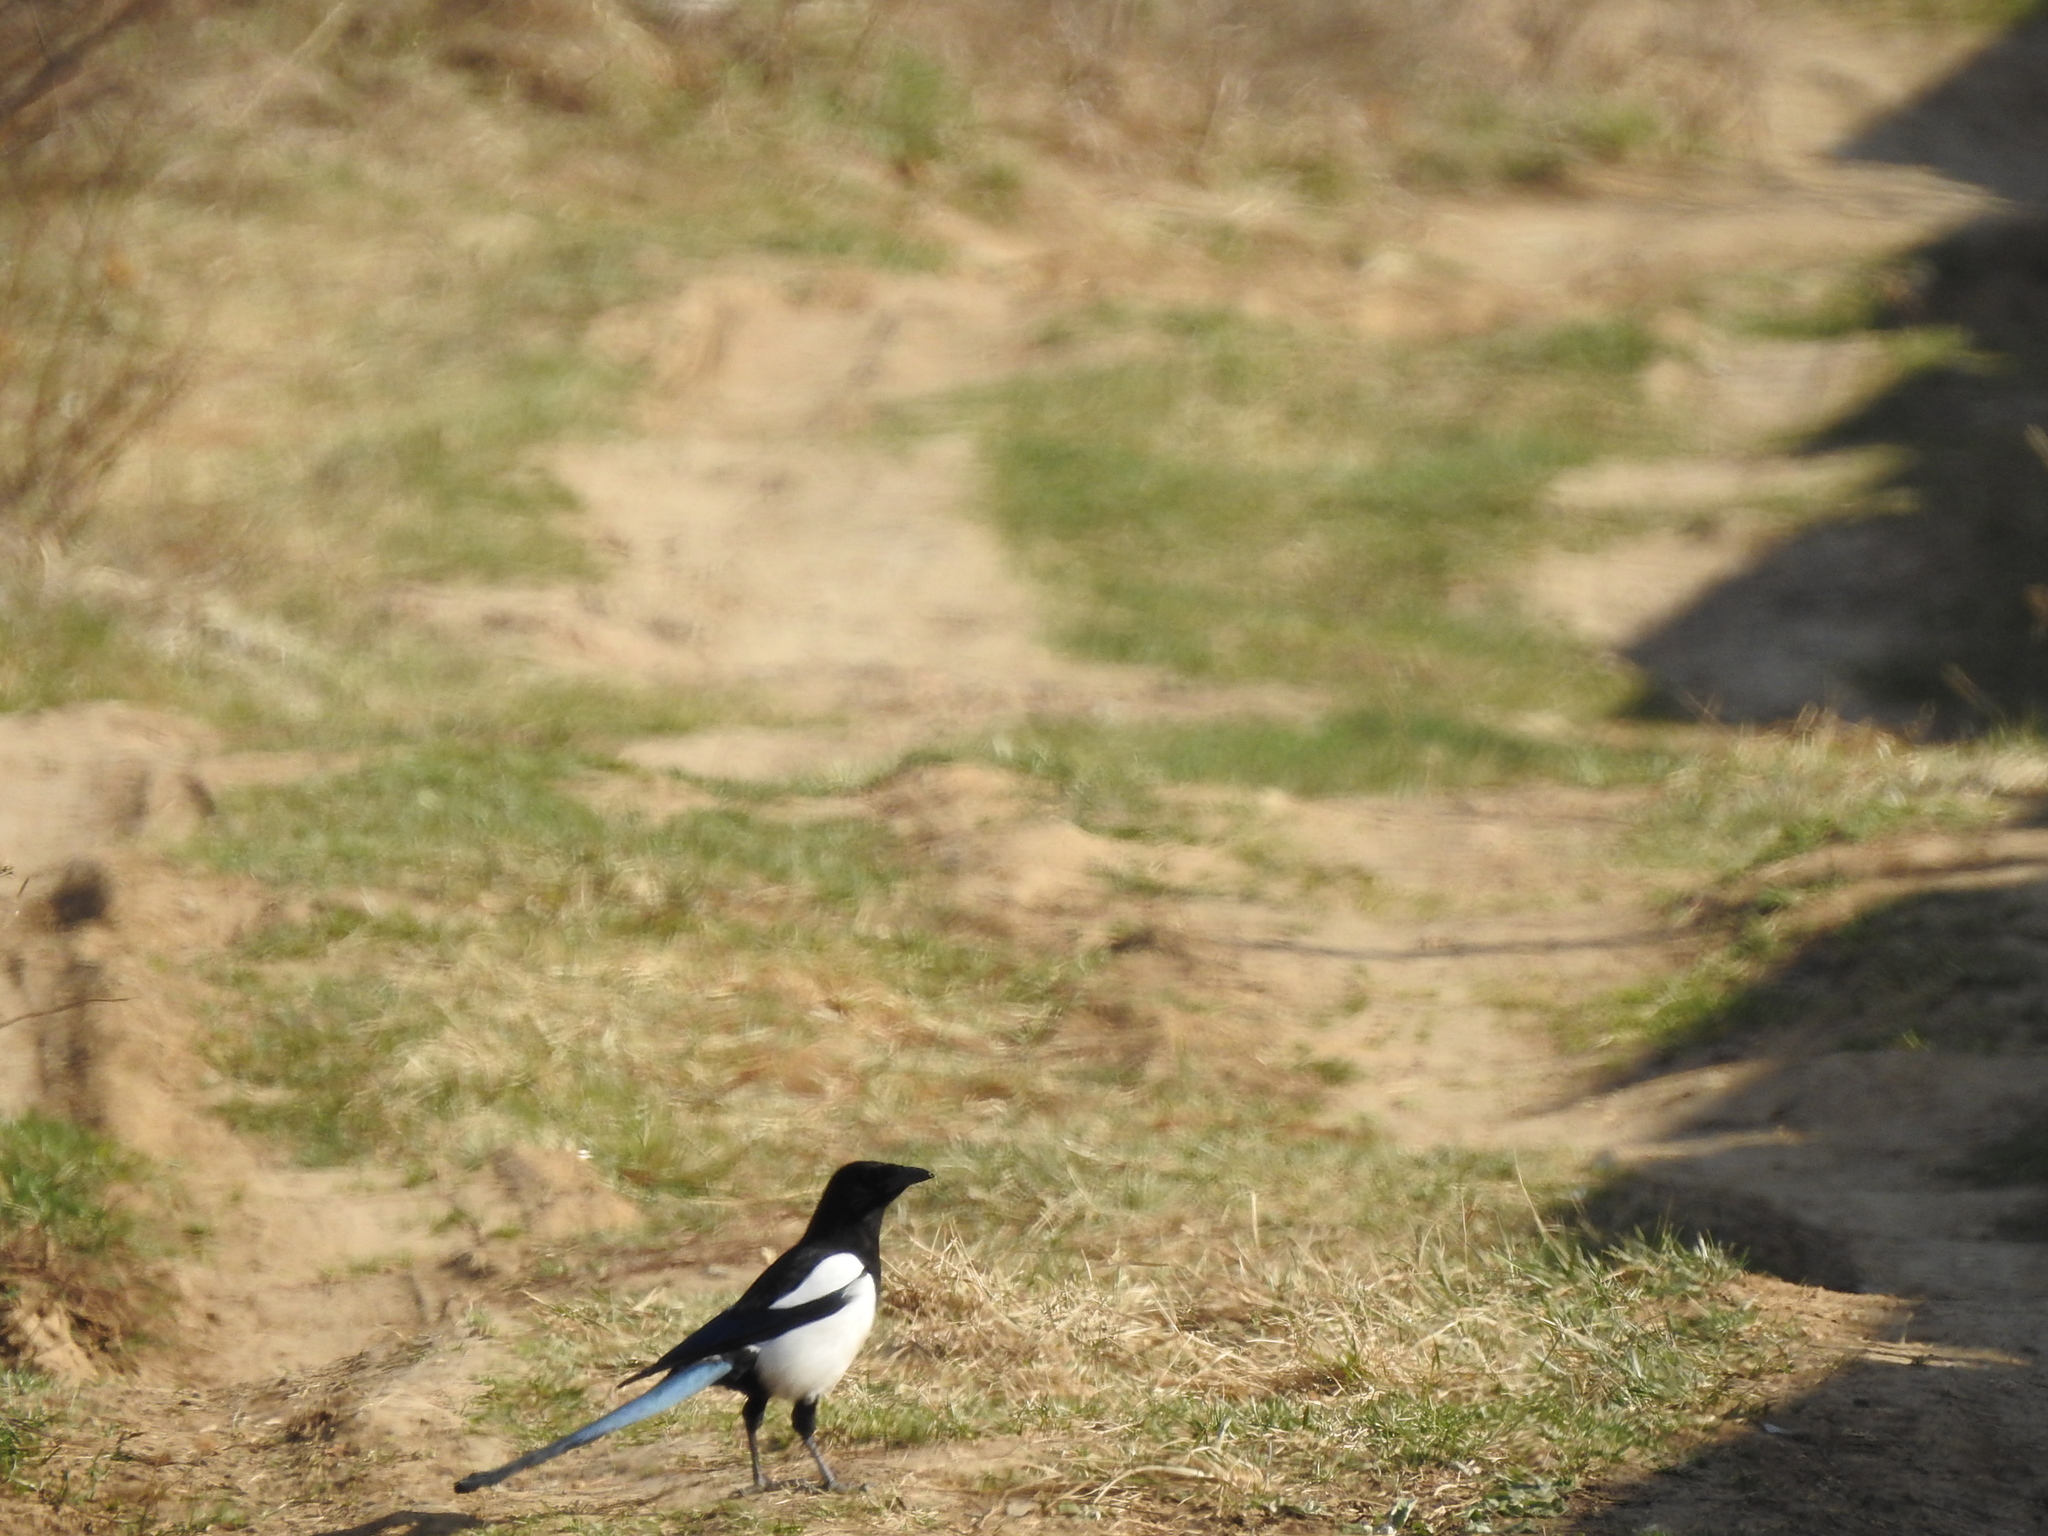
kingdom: Animalia
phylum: Chordata
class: Aves
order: Passeriformes
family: Corvidae
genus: Pica
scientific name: Pica pica
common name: Eurasian magpie
